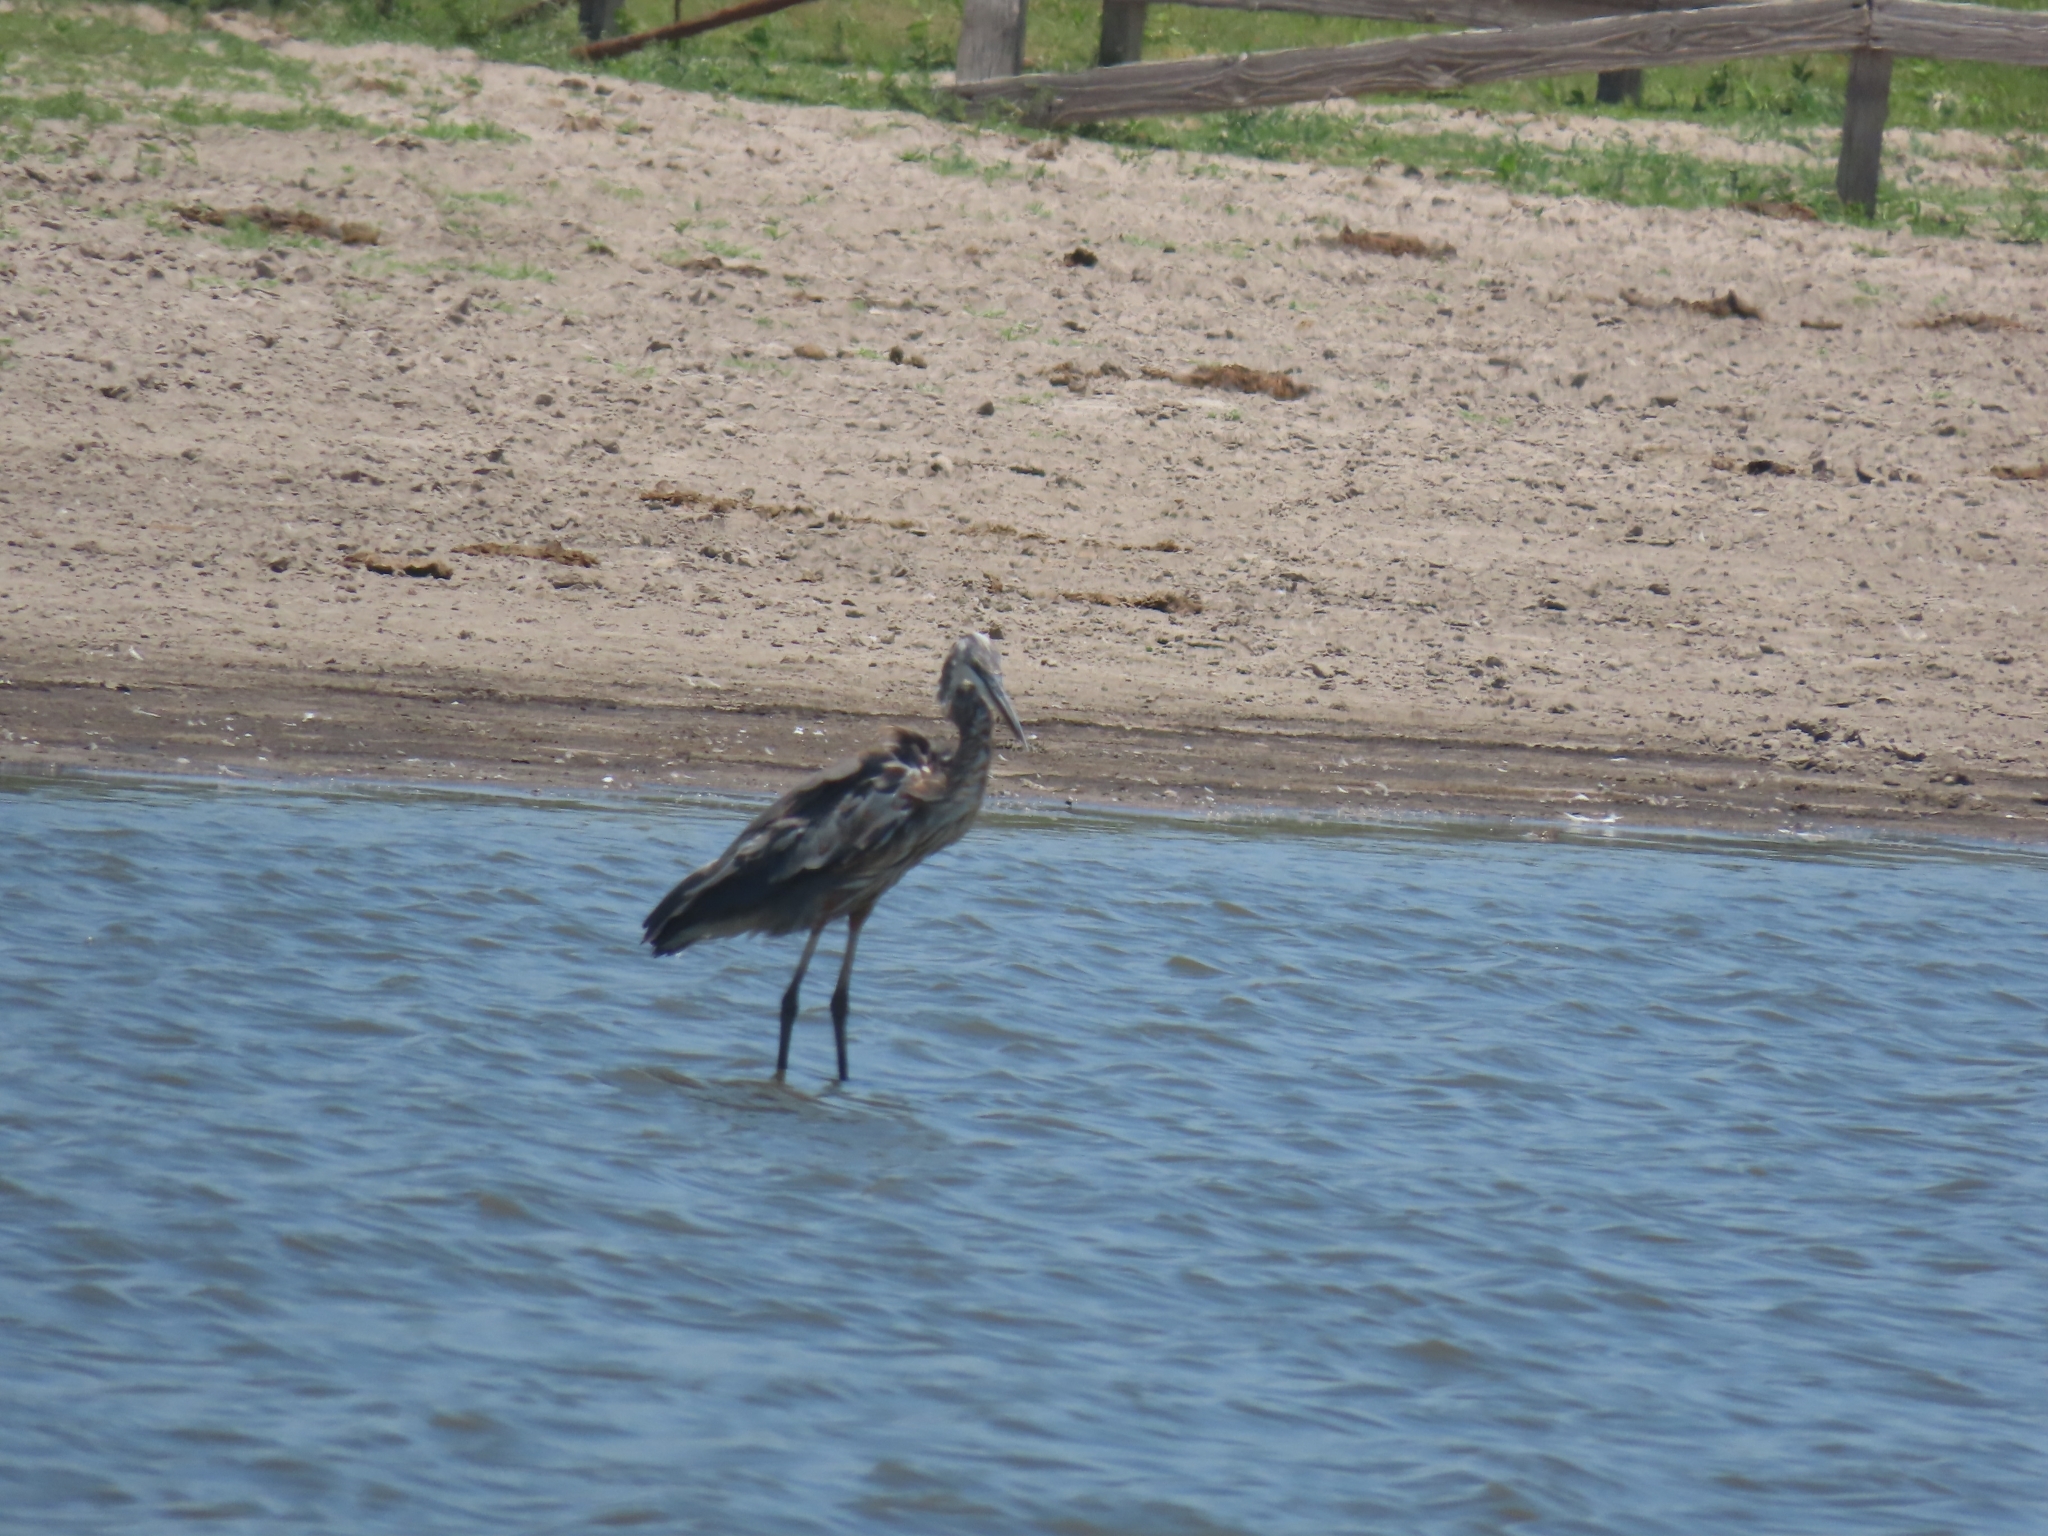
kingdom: Animalia
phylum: Chordata
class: Aves
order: Pelecaniformes
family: Ardeidae
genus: Ardea
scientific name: Ardea herodias
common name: Great blue heron
